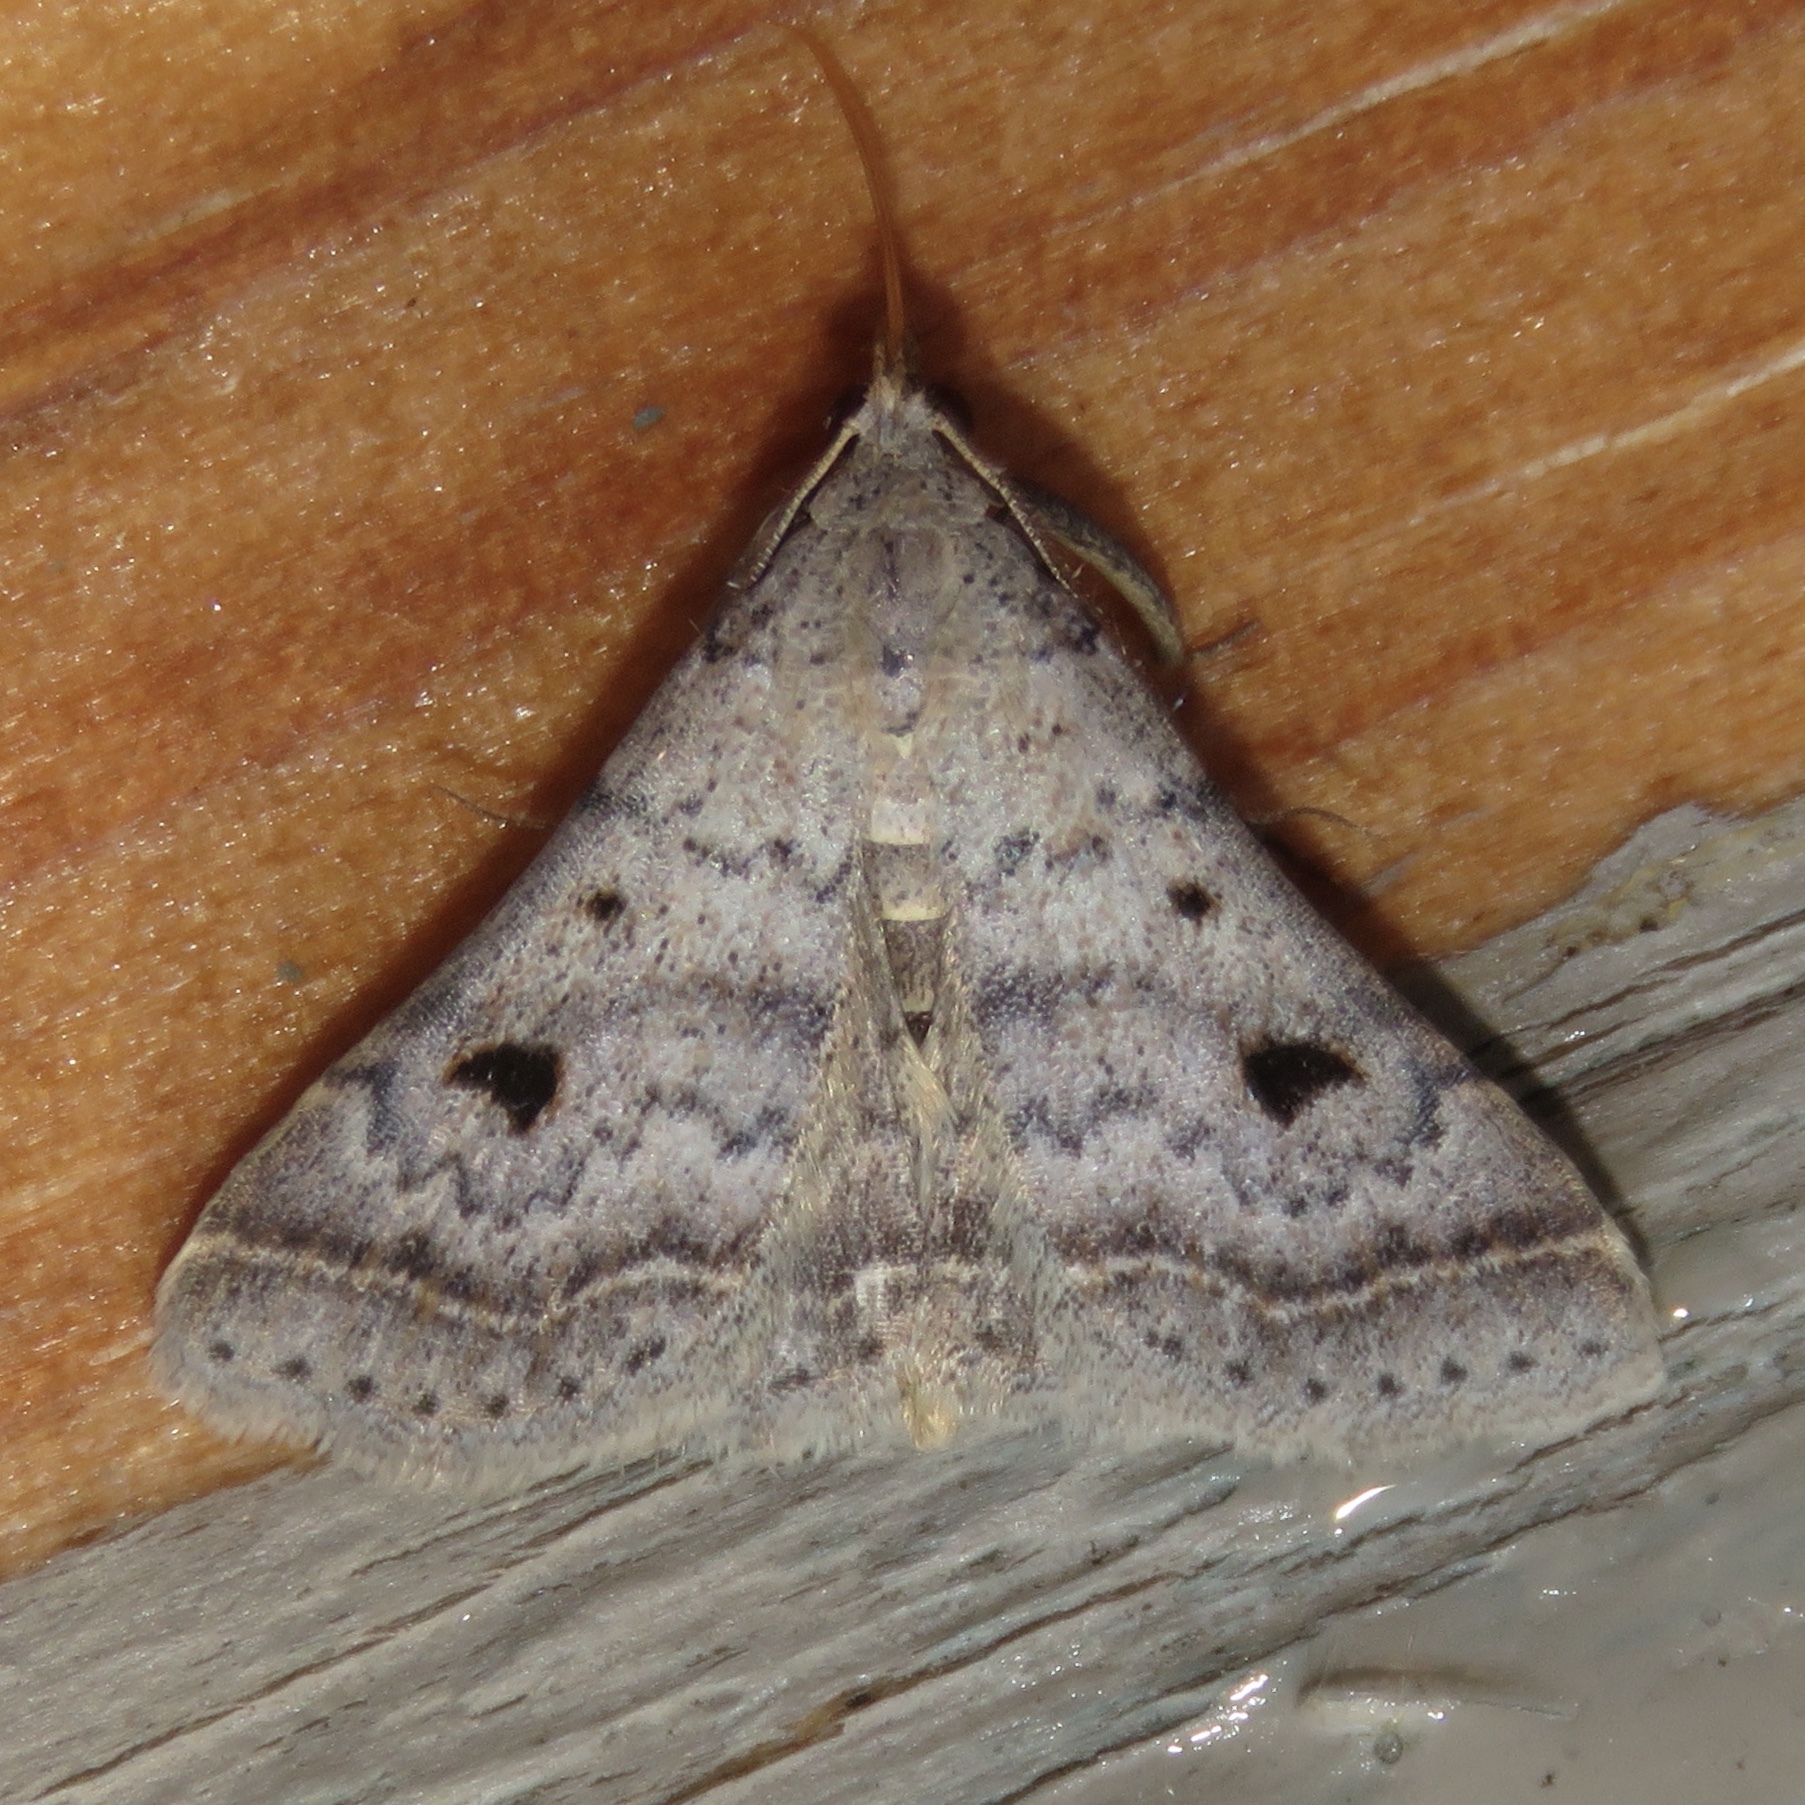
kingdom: Animalia
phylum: Arthropoda
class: Insecta
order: Lepidoptera
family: Erebidae
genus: Bleptina
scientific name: Bleptina caradrinalis
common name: Bent-winged owlet
